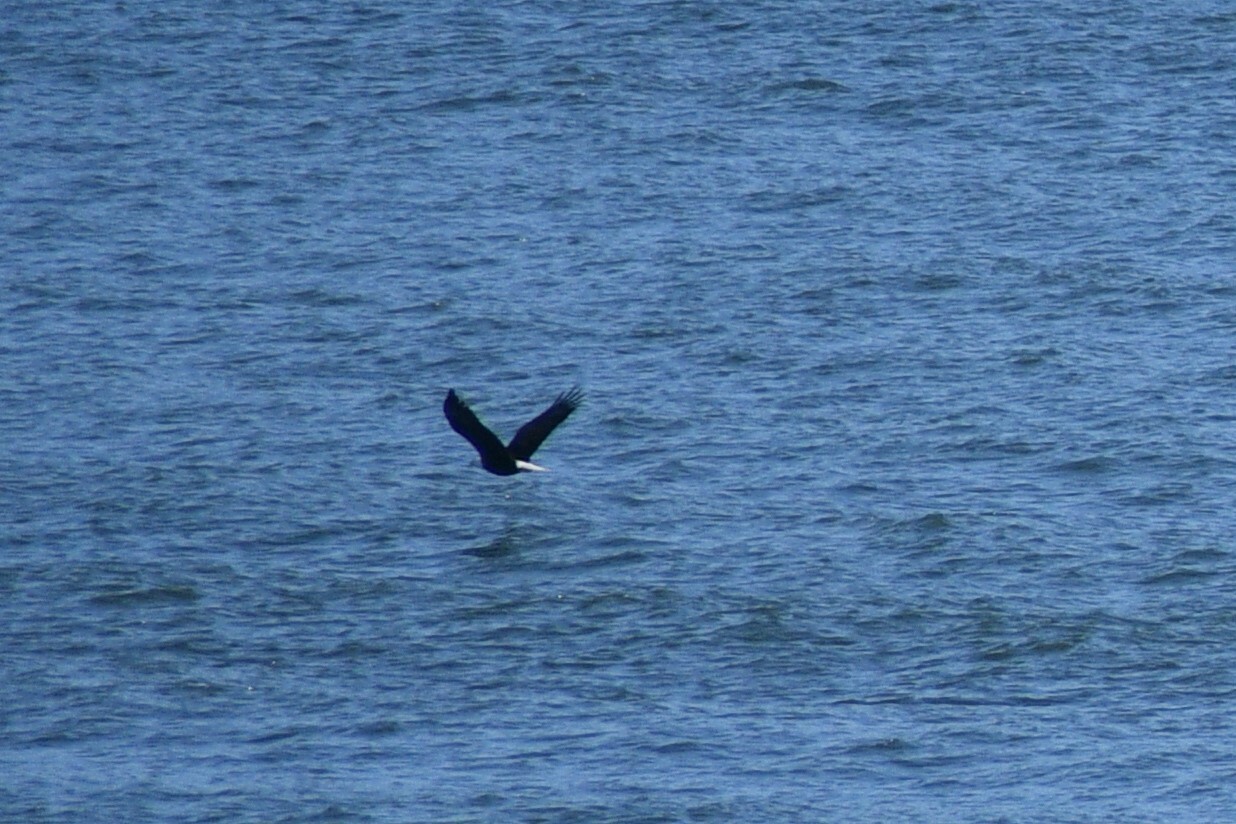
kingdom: Animalia
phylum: Chordata
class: Aves
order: Accipitriformes
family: Accipitridae
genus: Haliaeetus
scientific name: Haliaeetus leucocephalus
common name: Bald eagle
